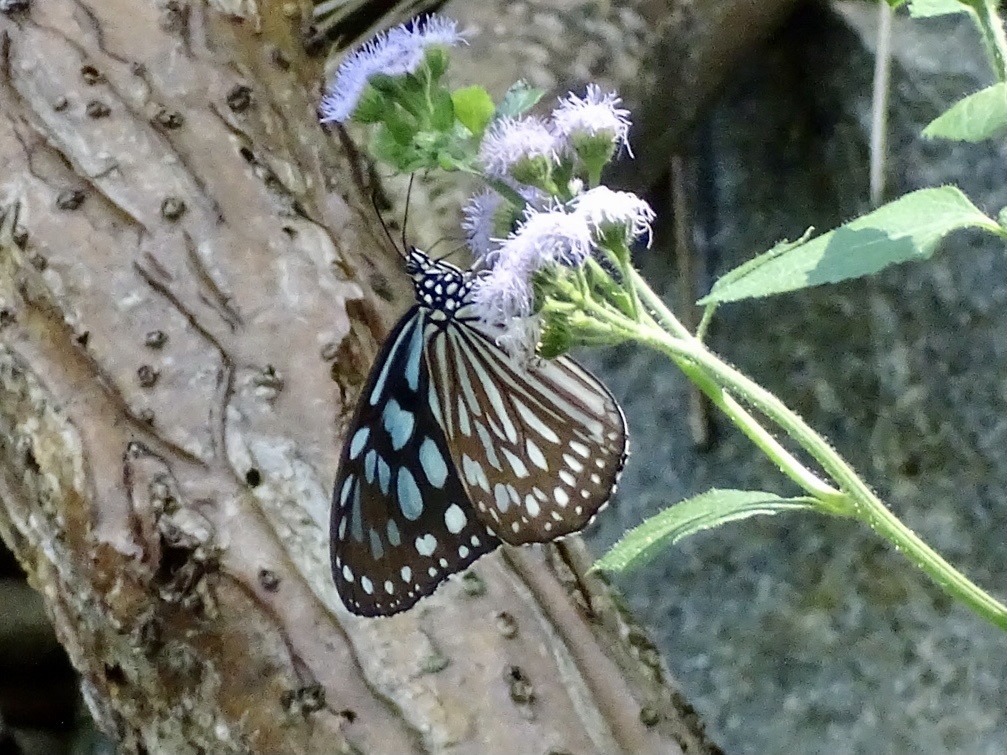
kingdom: Animalia
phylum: Arthropoda
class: Insecta
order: Lepidoptera
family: Nymphalidae
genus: Ideopsis
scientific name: Ideopsis similis
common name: Ceylon blue glassy tiger
